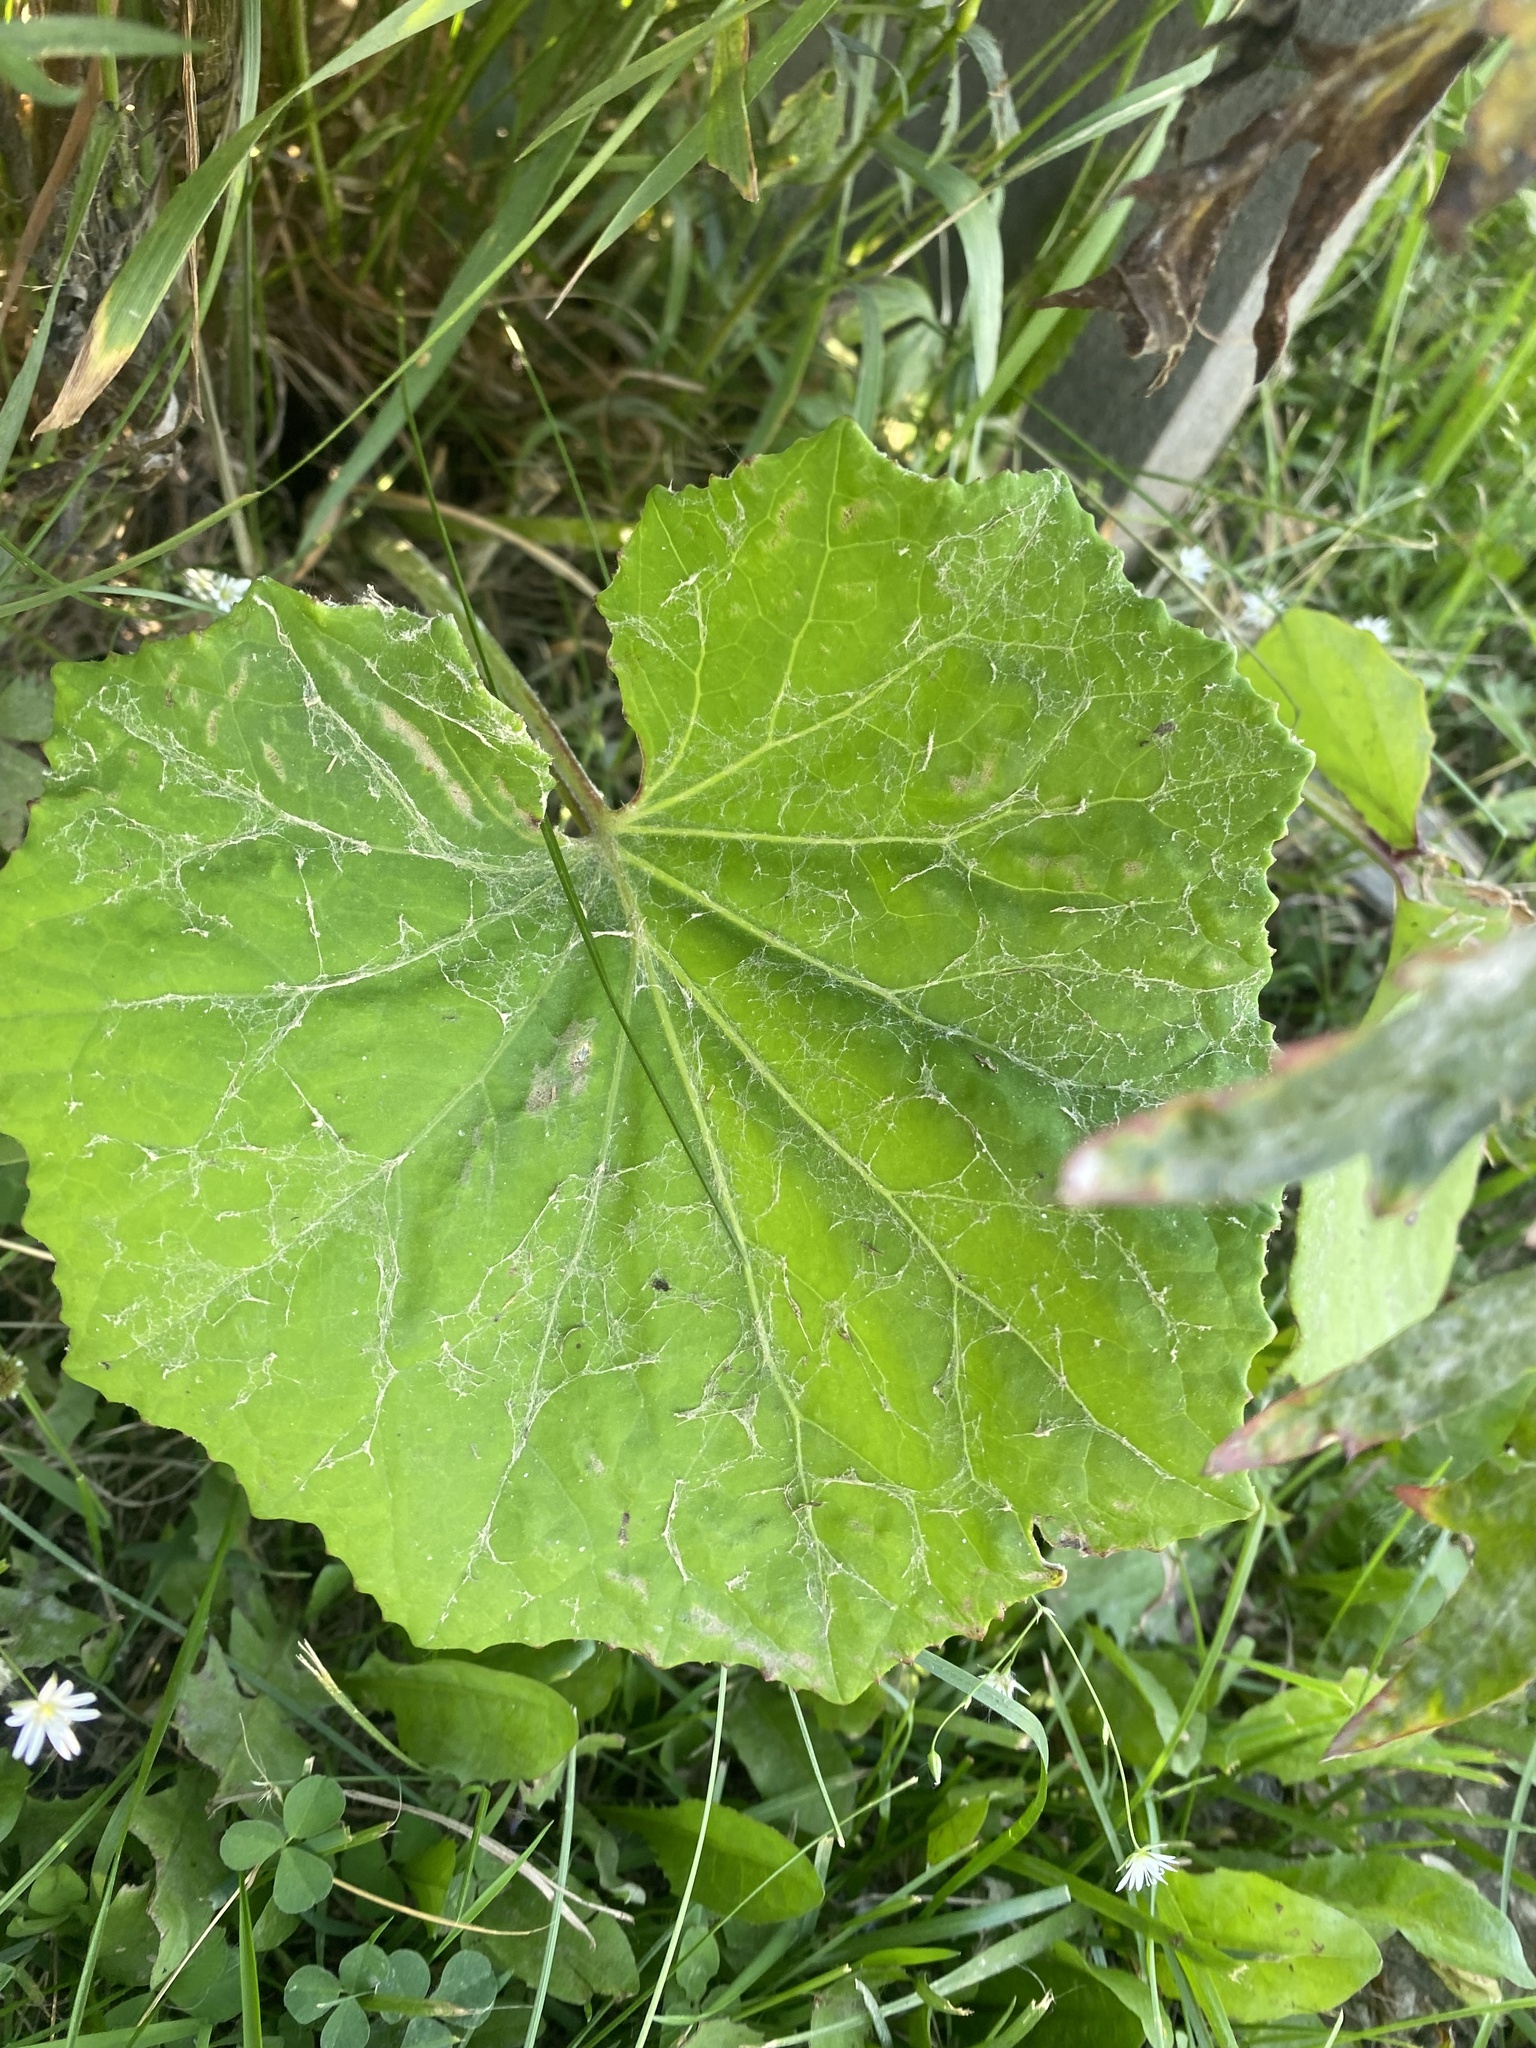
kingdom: Plantae
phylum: Tracheophyta
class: Magnoliopsida
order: Asterales
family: Asteraceae
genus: Tussilago
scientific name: Tussilago farfara
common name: Coltsfoot
